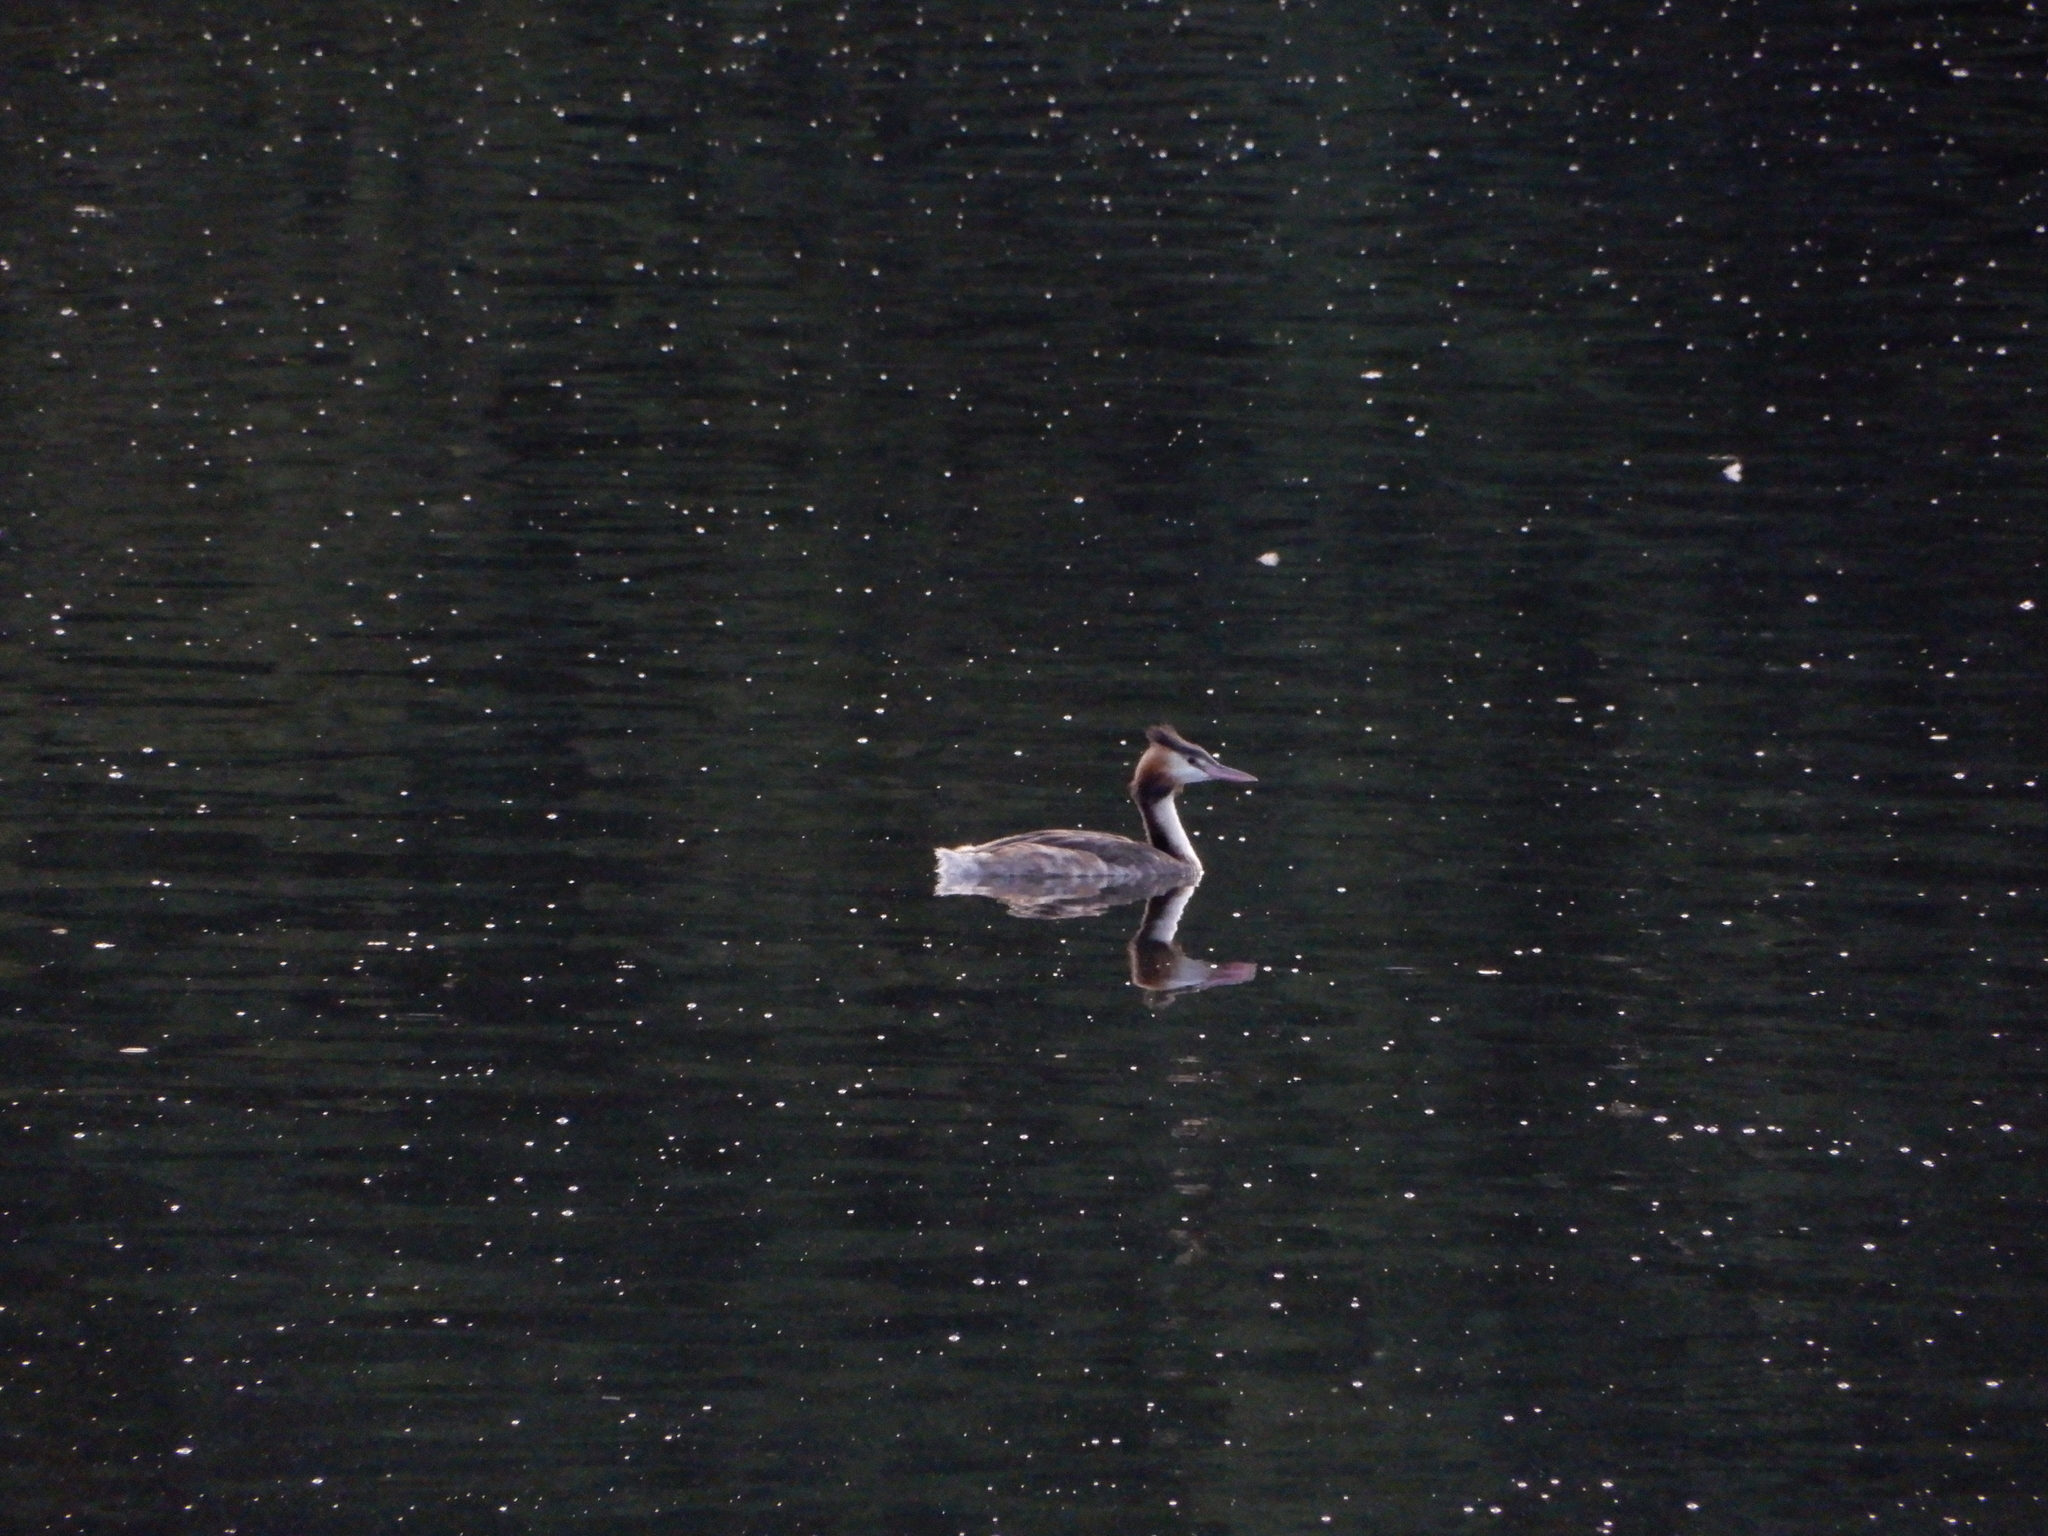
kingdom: Animalia
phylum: Chordata
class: Aves
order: Podicipediformes
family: Podicipedidae
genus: Podiceps
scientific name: Podiceps cristatus
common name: Great crested grebe
